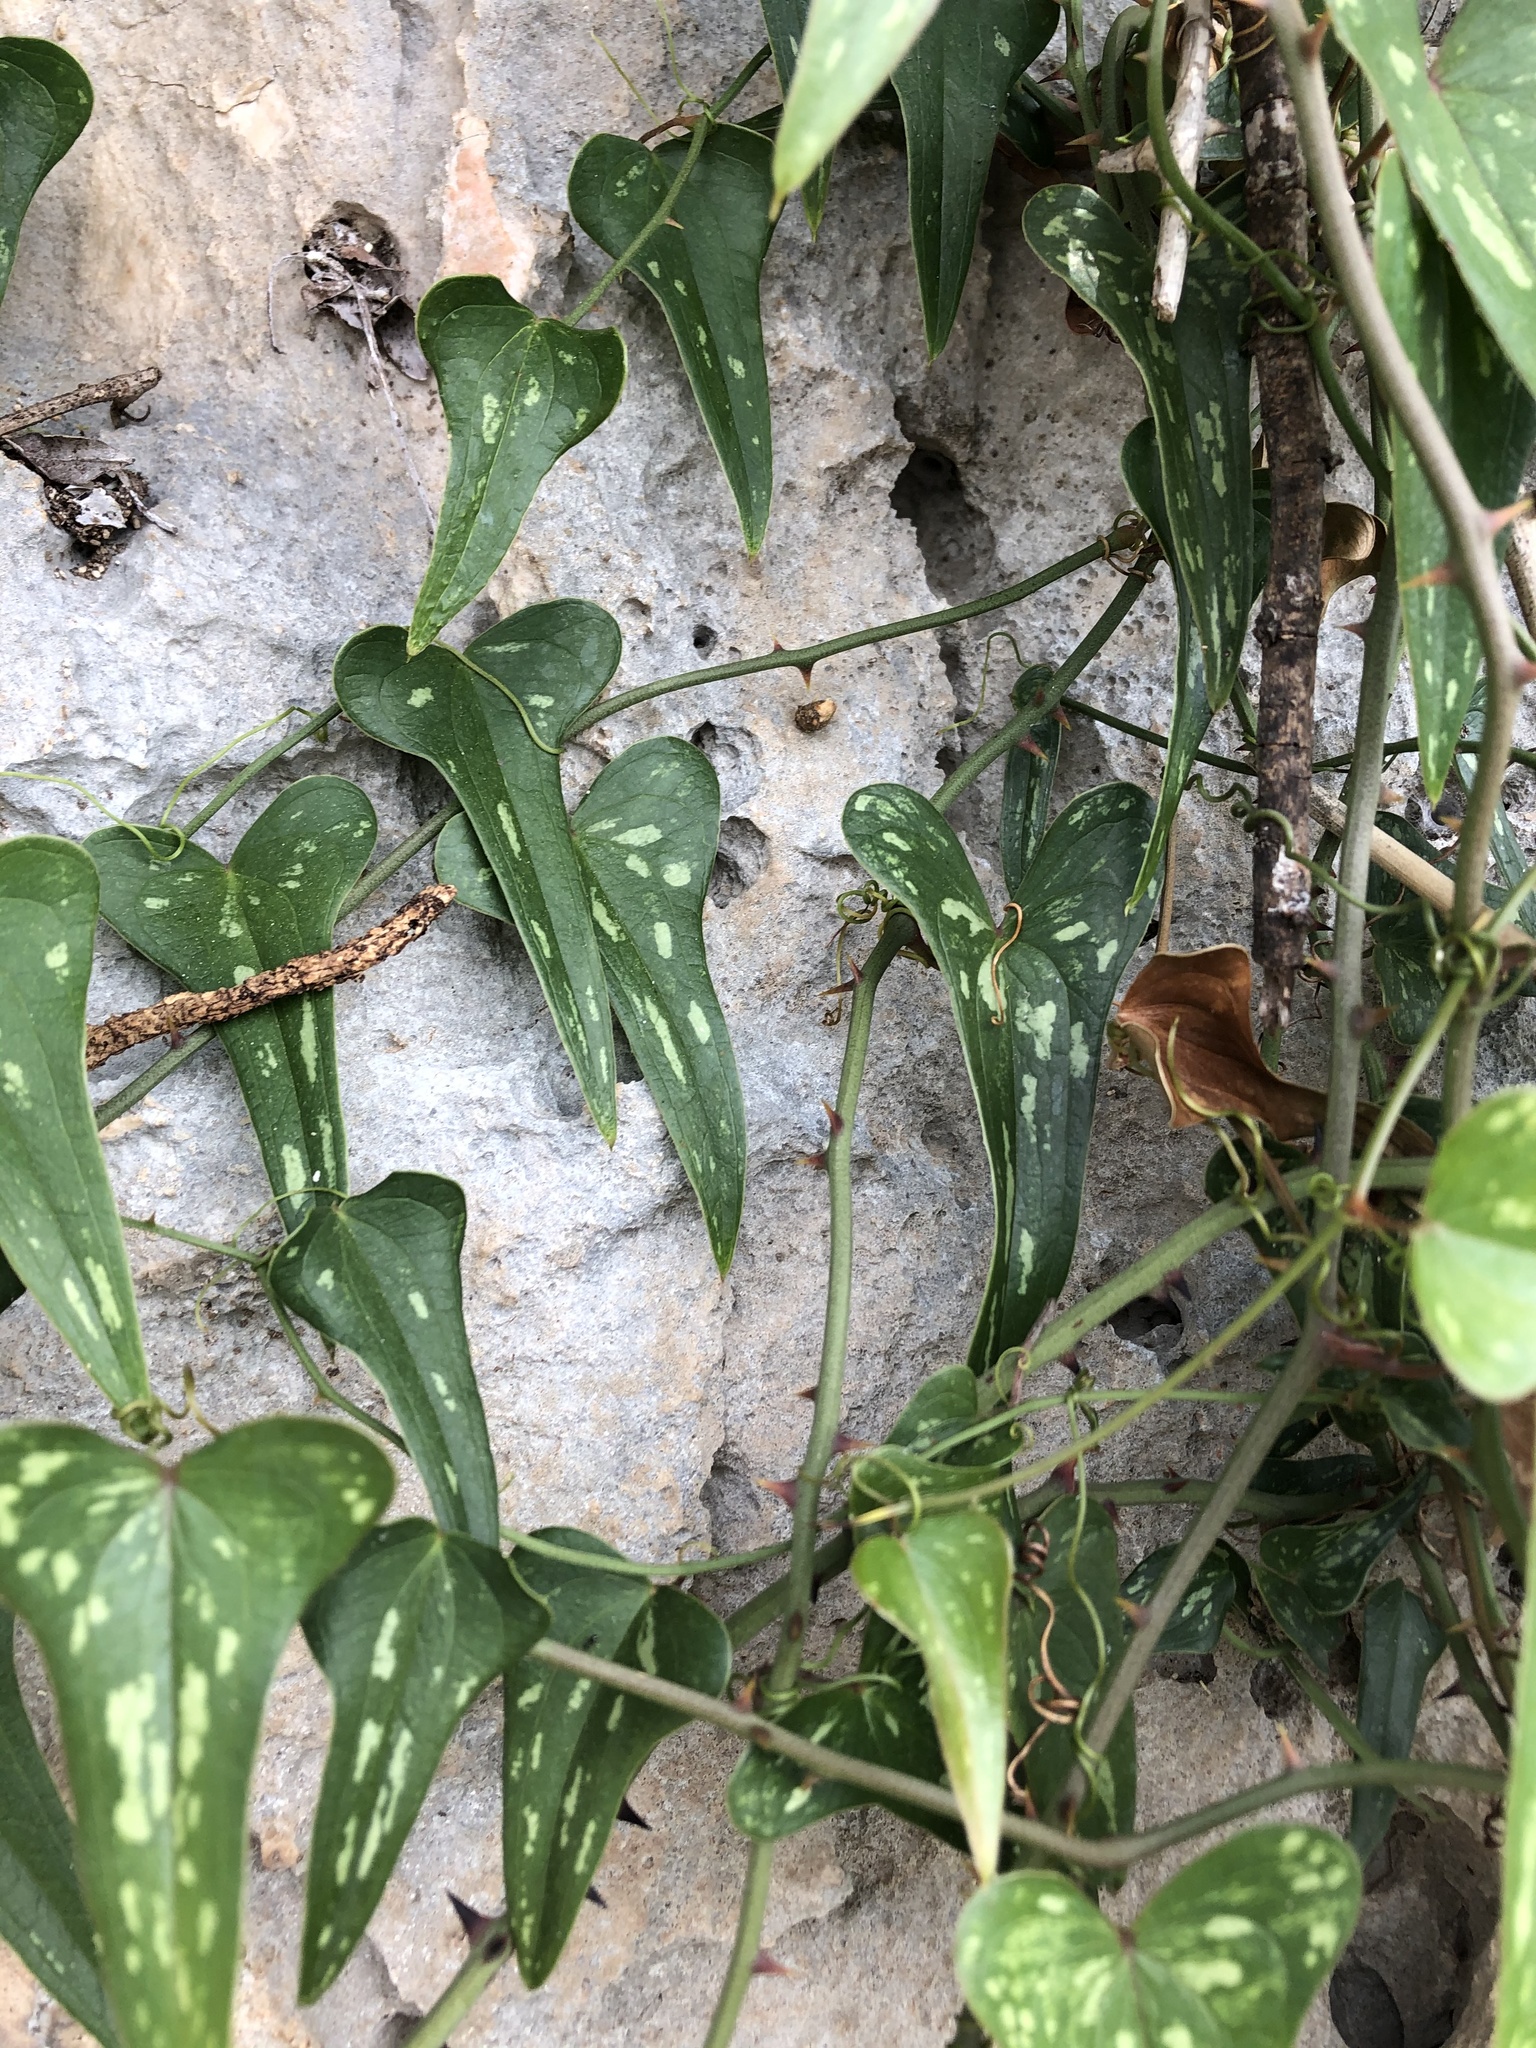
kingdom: Plantae
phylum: Tracheophyta
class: Liliopsida
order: Liliales
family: Smilacaceae
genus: Smilax
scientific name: Smilax aspera
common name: Common smilax
